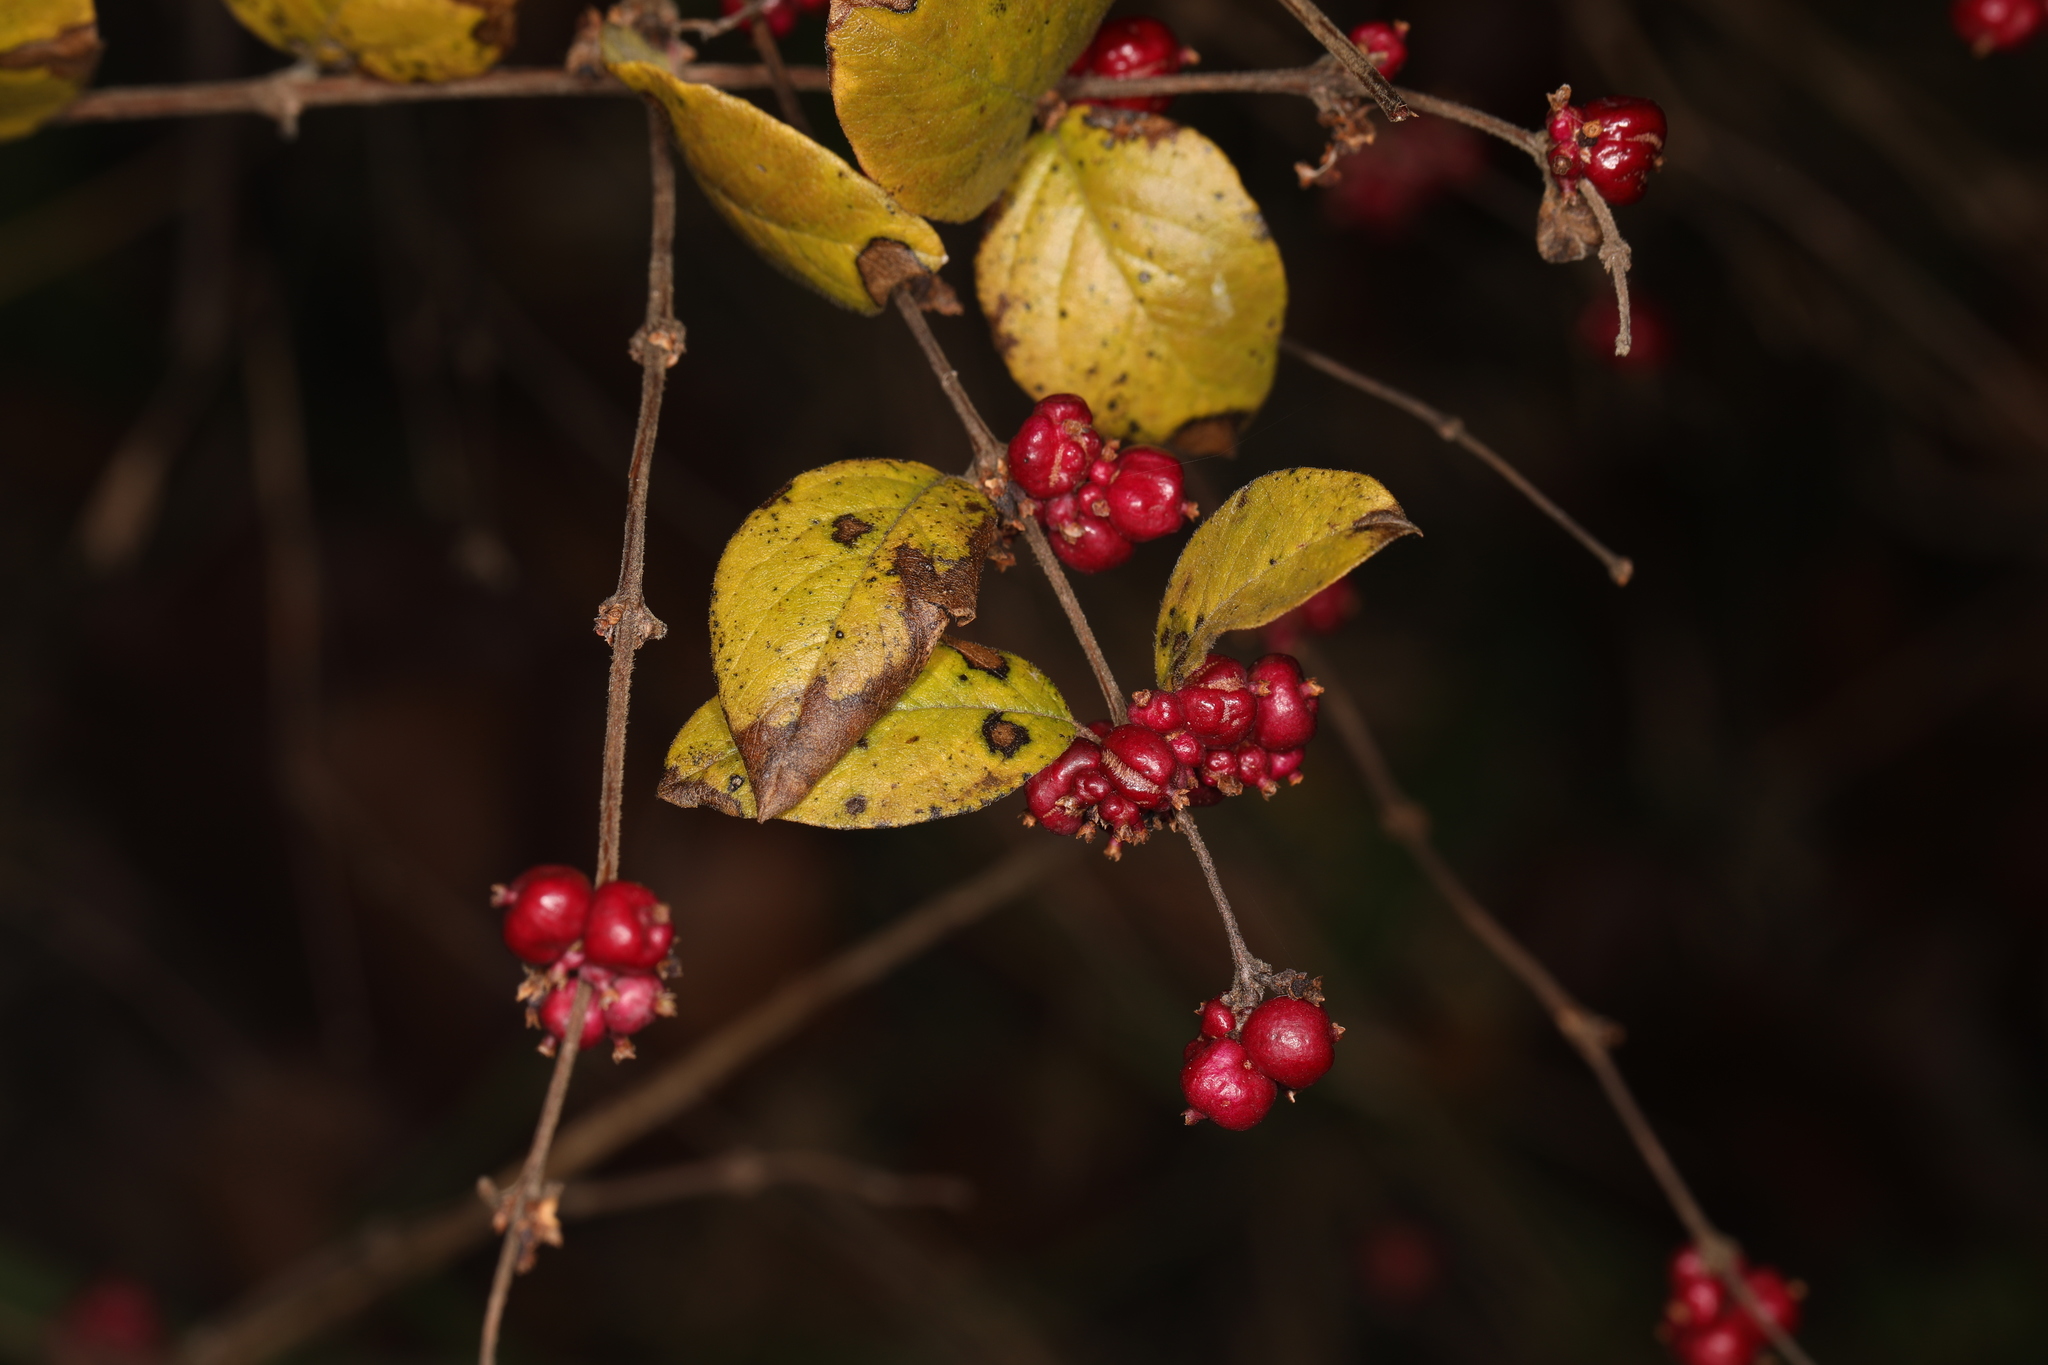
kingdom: Plantae
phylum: Tracheophyta
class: Magnoliopsida
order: Dipsacales
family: Caprifoliaceae
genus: Symphoricarpos
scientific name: Symphoricarpos orbiculatus
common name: Coralberry
